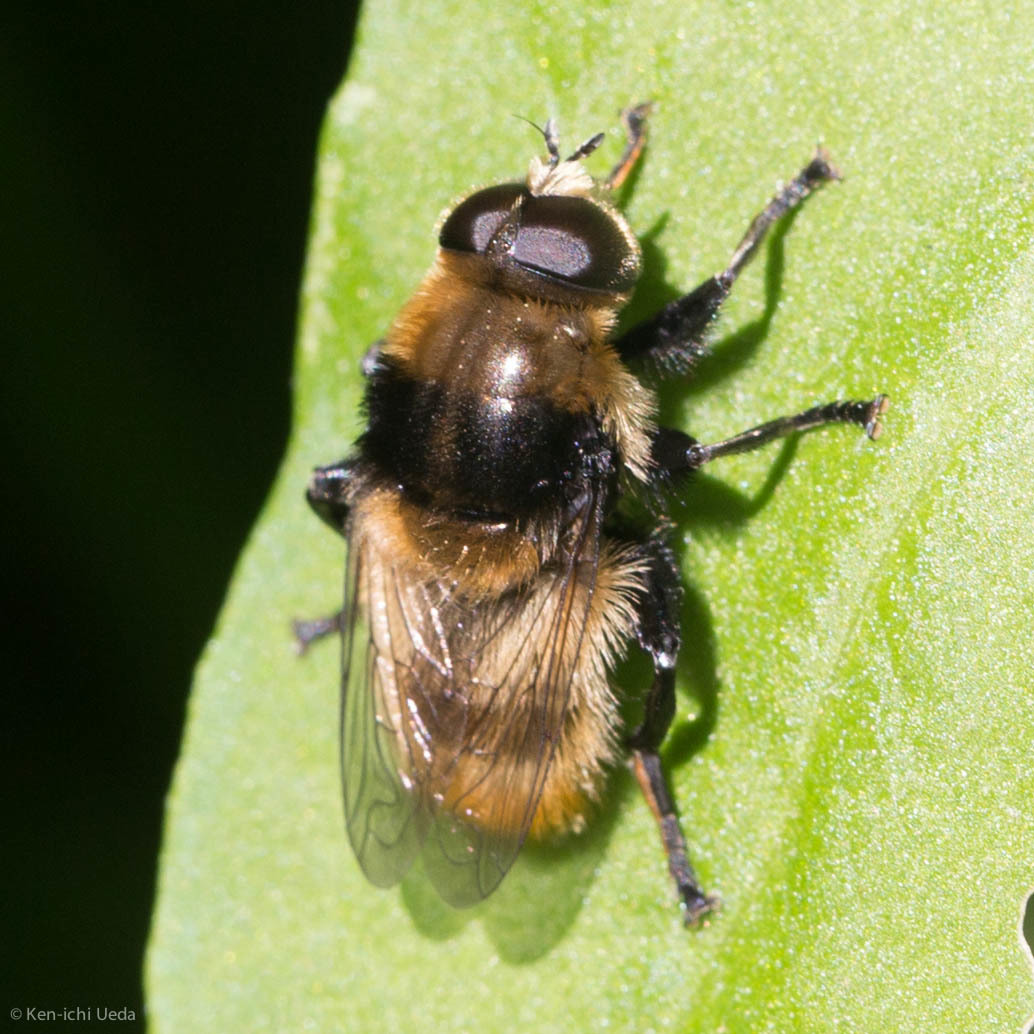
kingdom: Animalia
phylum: Arthropoda
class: Insecta
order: Diptera
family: Syrphidae
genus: Merodon
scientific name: Merodon equestris
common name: Greater bulb-fly
